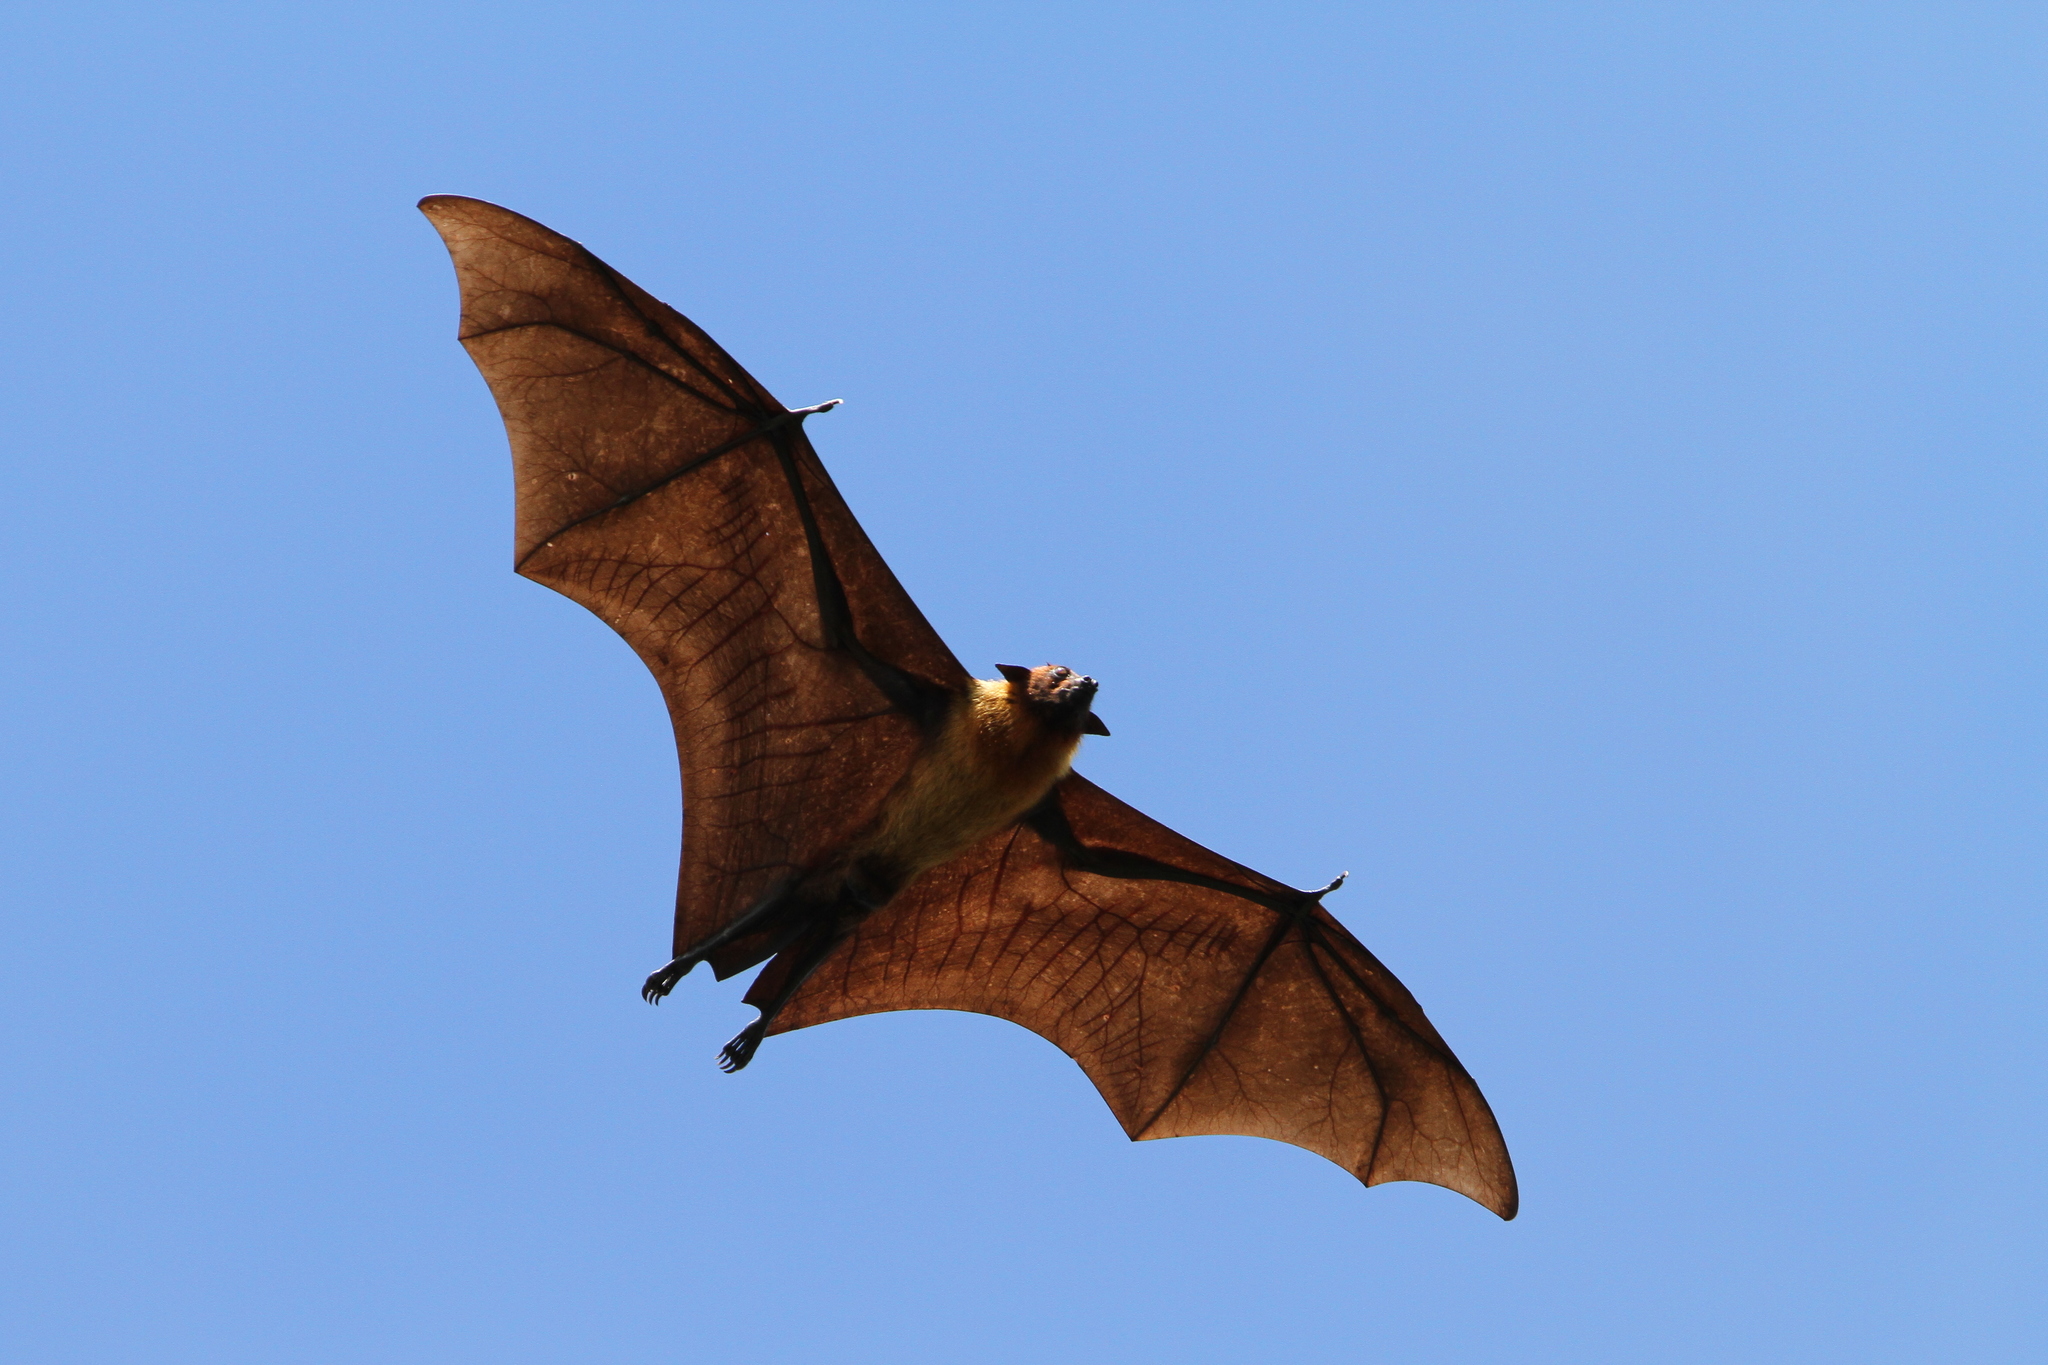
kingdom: Animalia
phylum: Chordata
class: Mammalia
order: Chiroptera
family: Pteropodidae
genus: Pteropus
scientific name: Pteropus vampyrus
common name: Large flying fox
